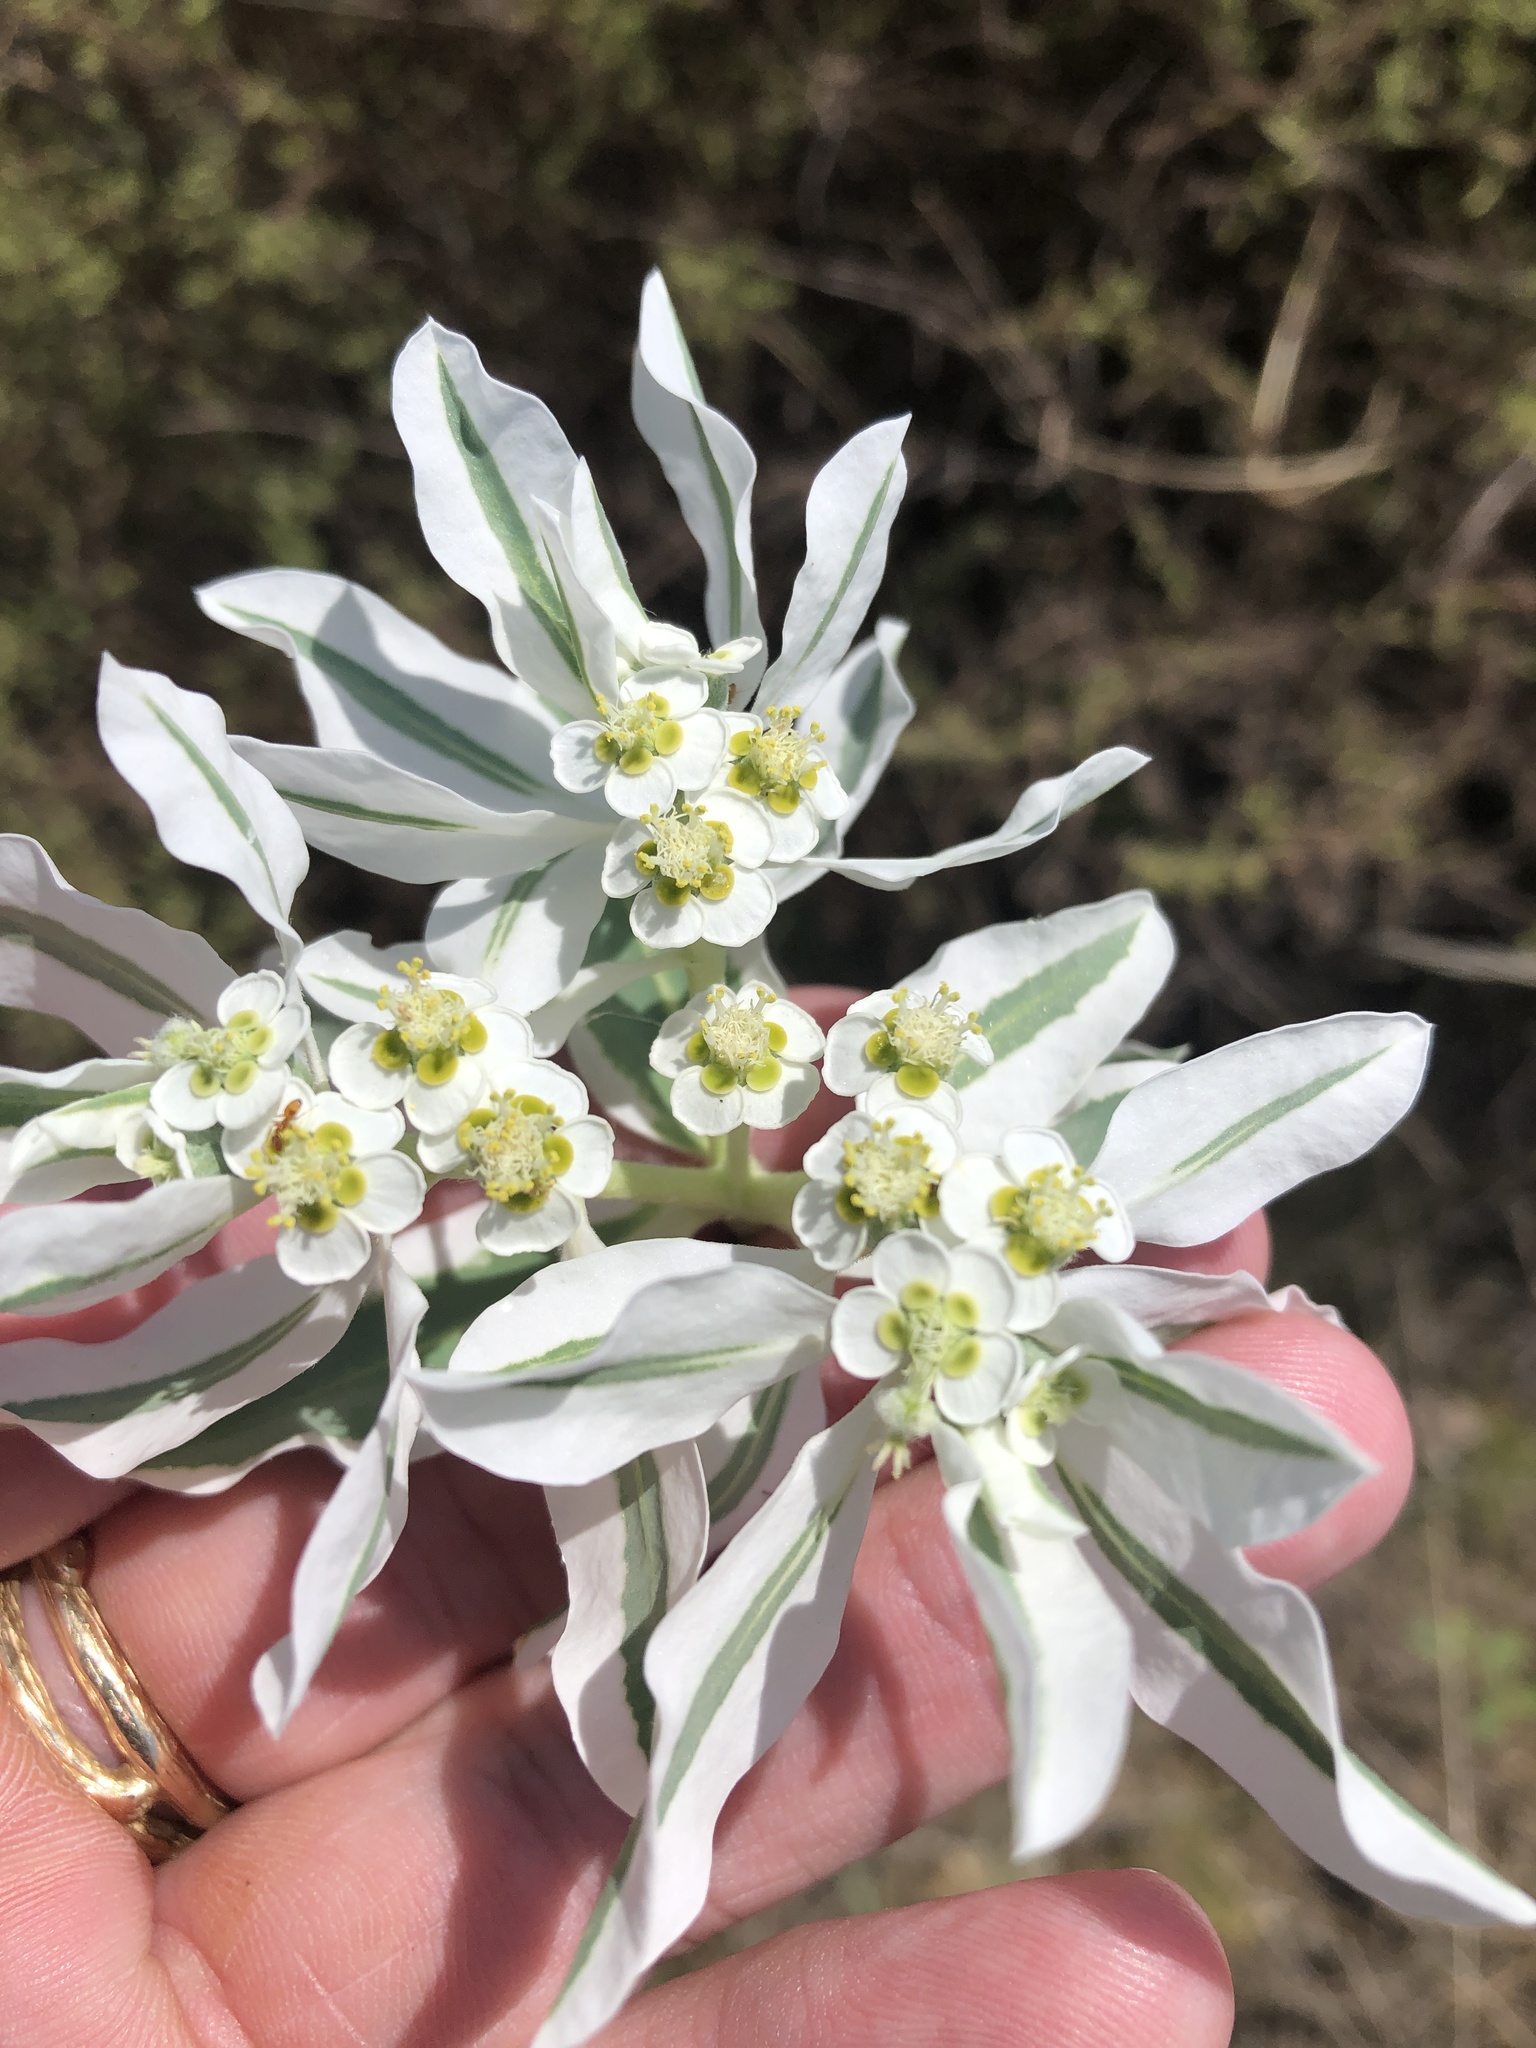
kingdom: Plantae
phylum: Tracheophyta
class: Magnoliopsida
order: Malpighiales
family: Euphorbiaceae
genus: Euphorbia
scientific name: Euphorbia marginata
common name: Ghostweed
